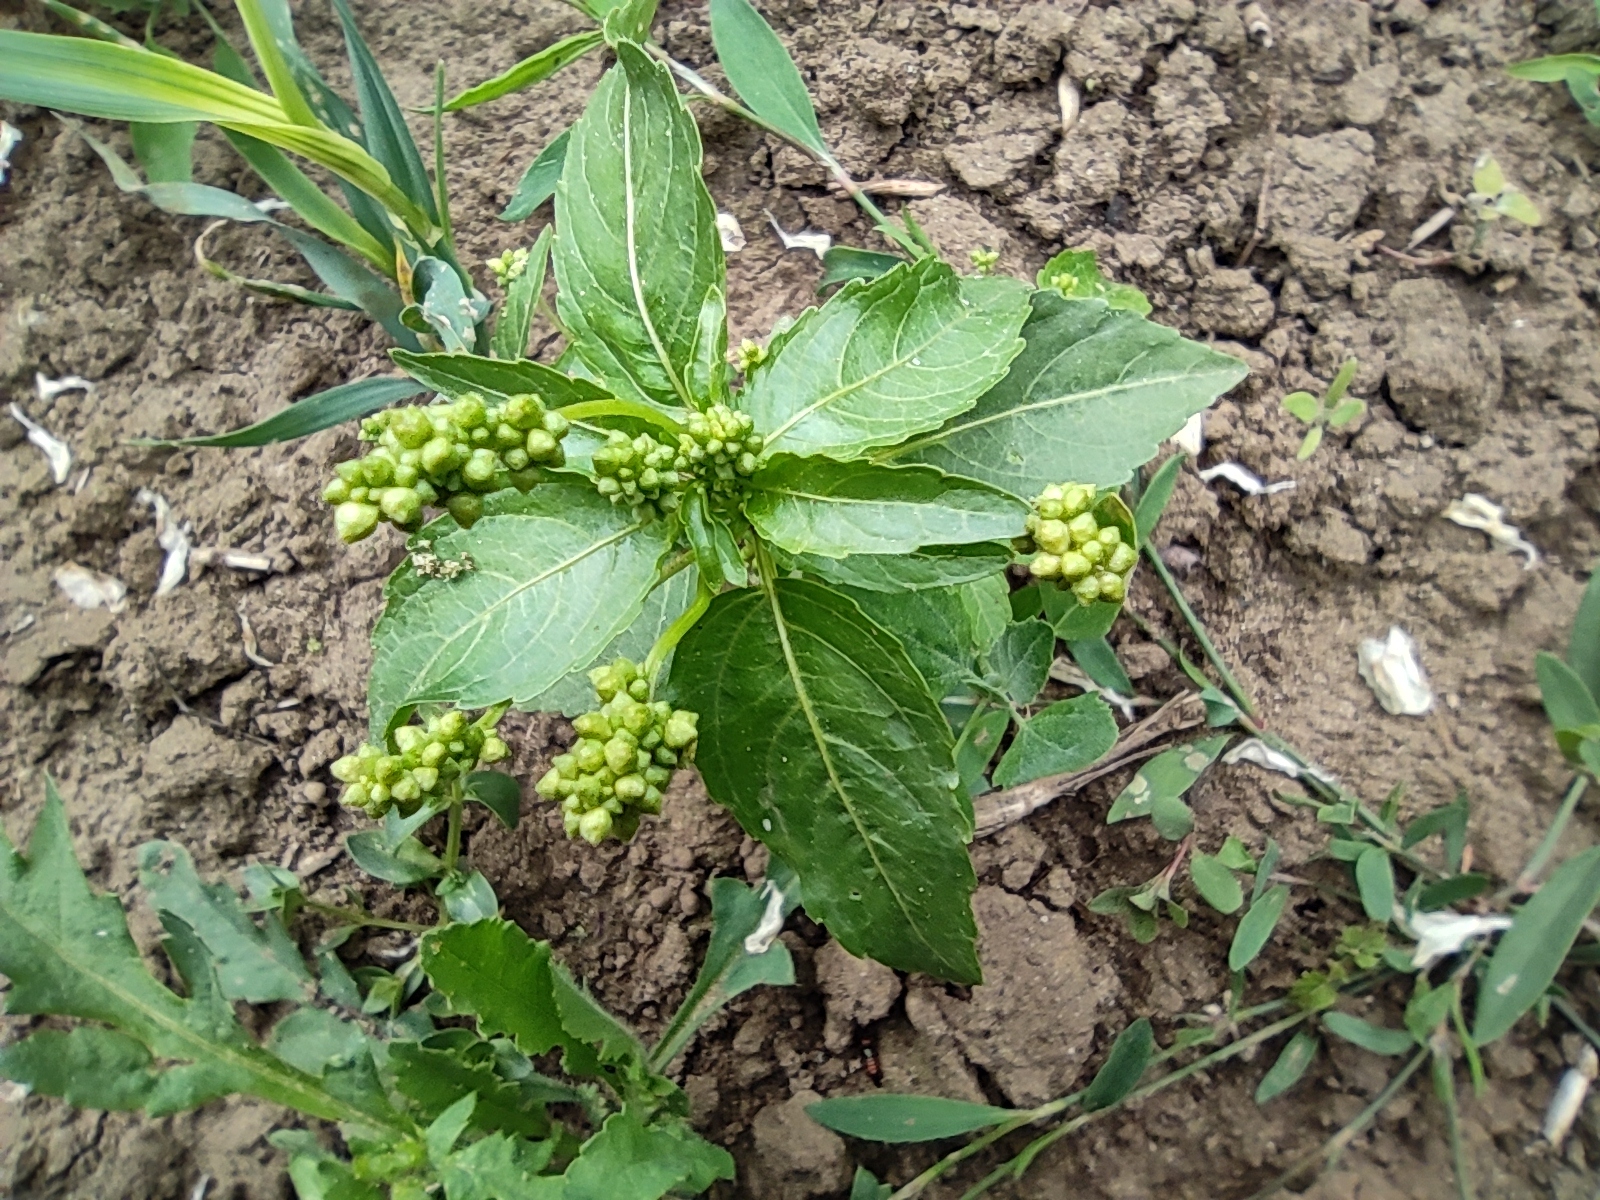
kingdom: Plantae
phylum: Tracheophyta
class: Magnoliopsida
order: Malpighiales
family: Euphorbiaceae
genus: Mercurialis
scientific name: Mercurialis annua
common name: Annual mercury
